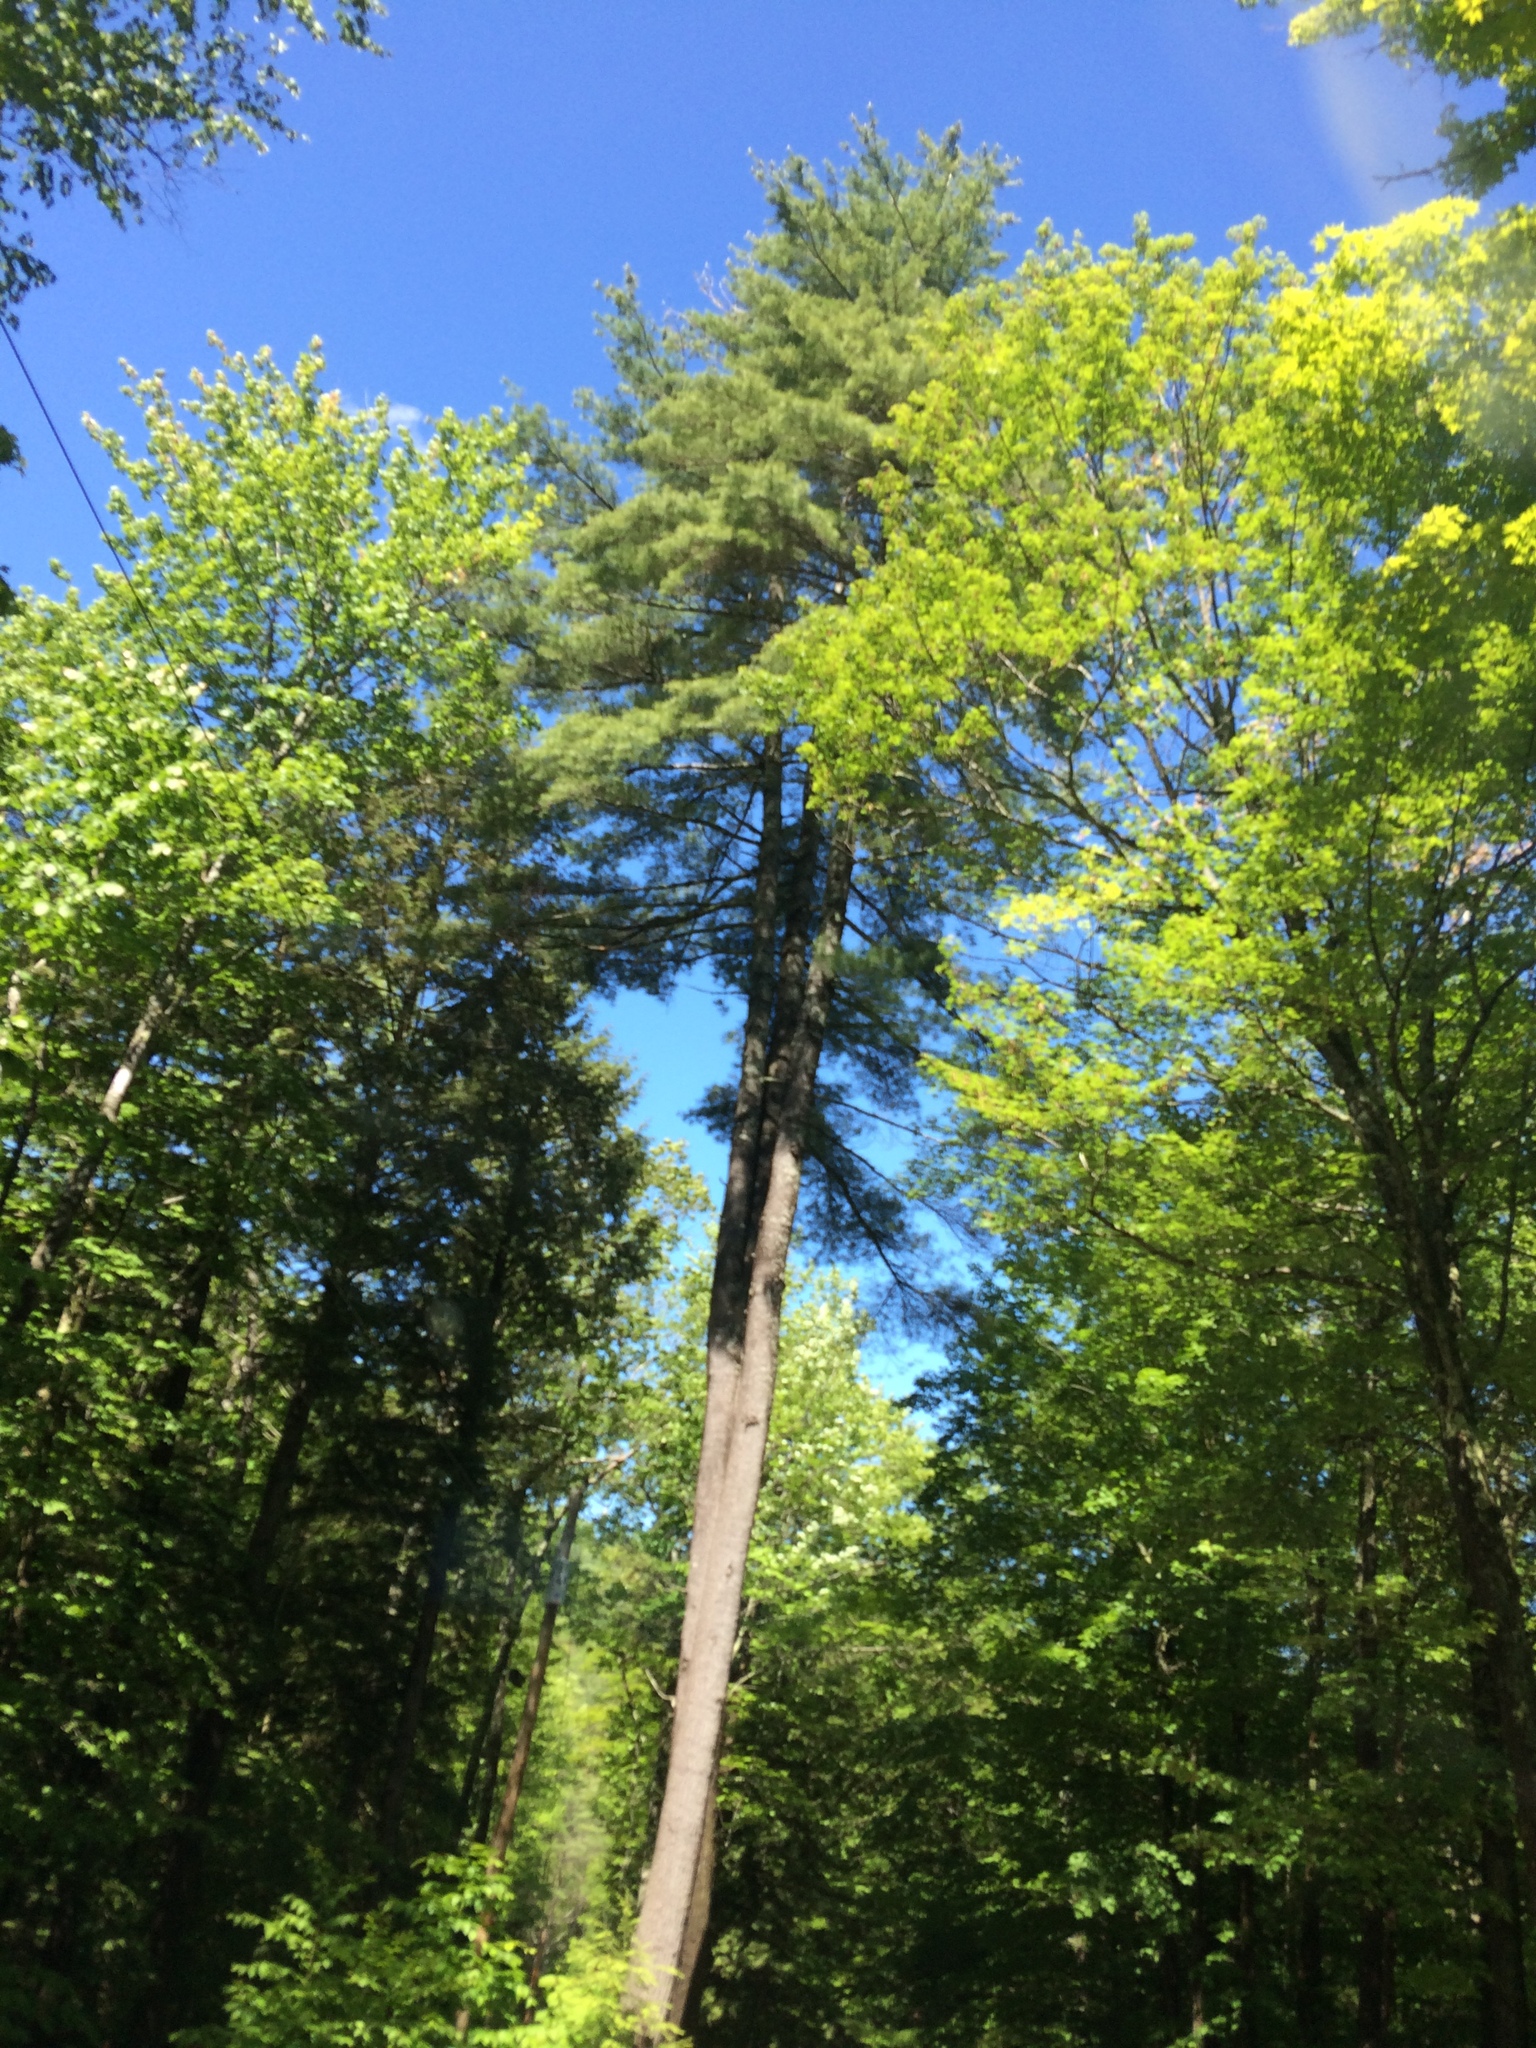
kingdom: Plantae
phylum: Tracheophyta
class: Pinopsida
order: Pinales
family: Pinaceae
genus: Pinus
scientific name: Pinus strobus
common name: Weymouth pine
